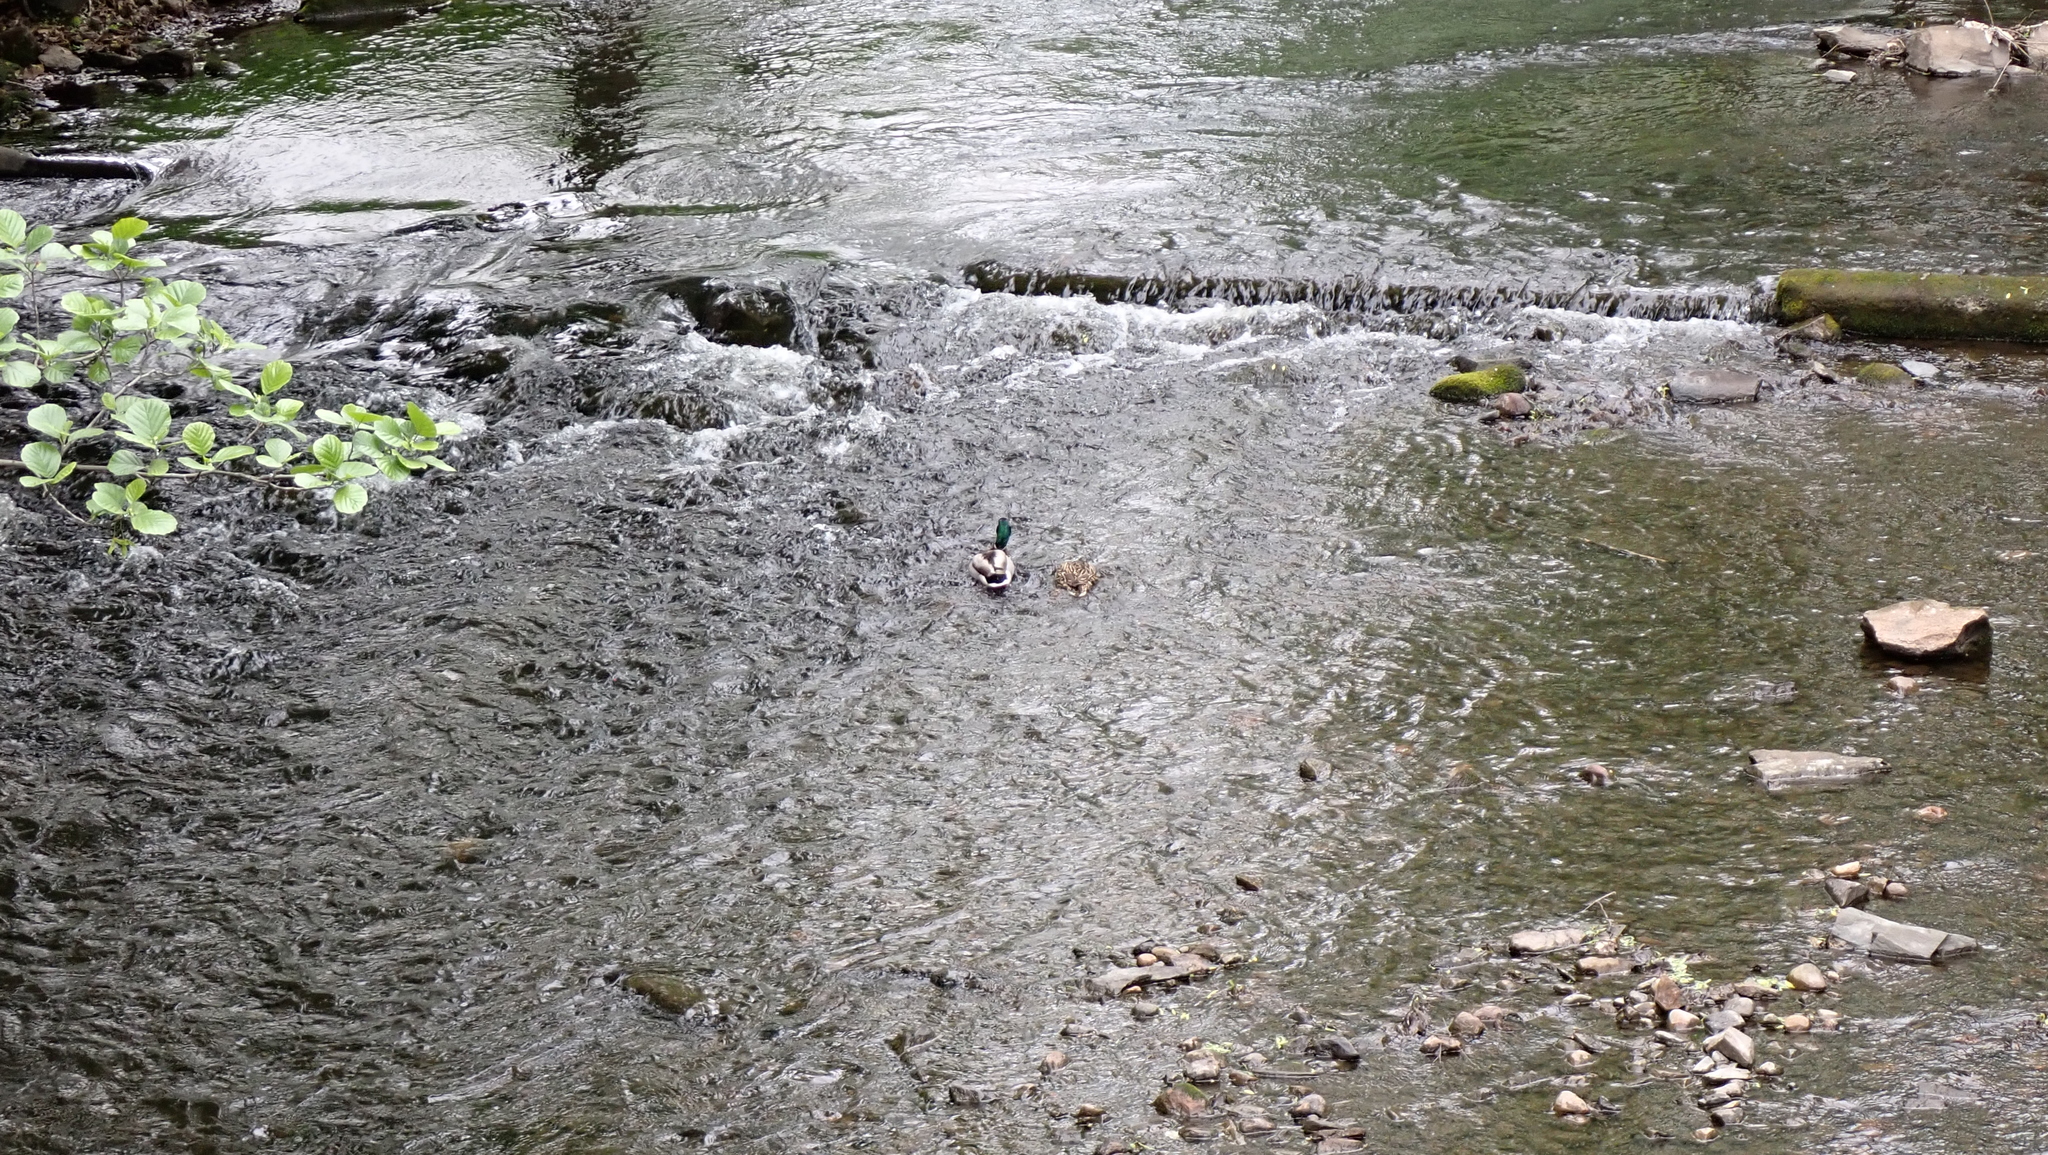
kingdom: Animalia
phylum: Chordata
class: Aves
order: Anseriformes
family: Anatidae
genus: Anas
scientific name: Anas platyrhynchos
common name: Mallard
